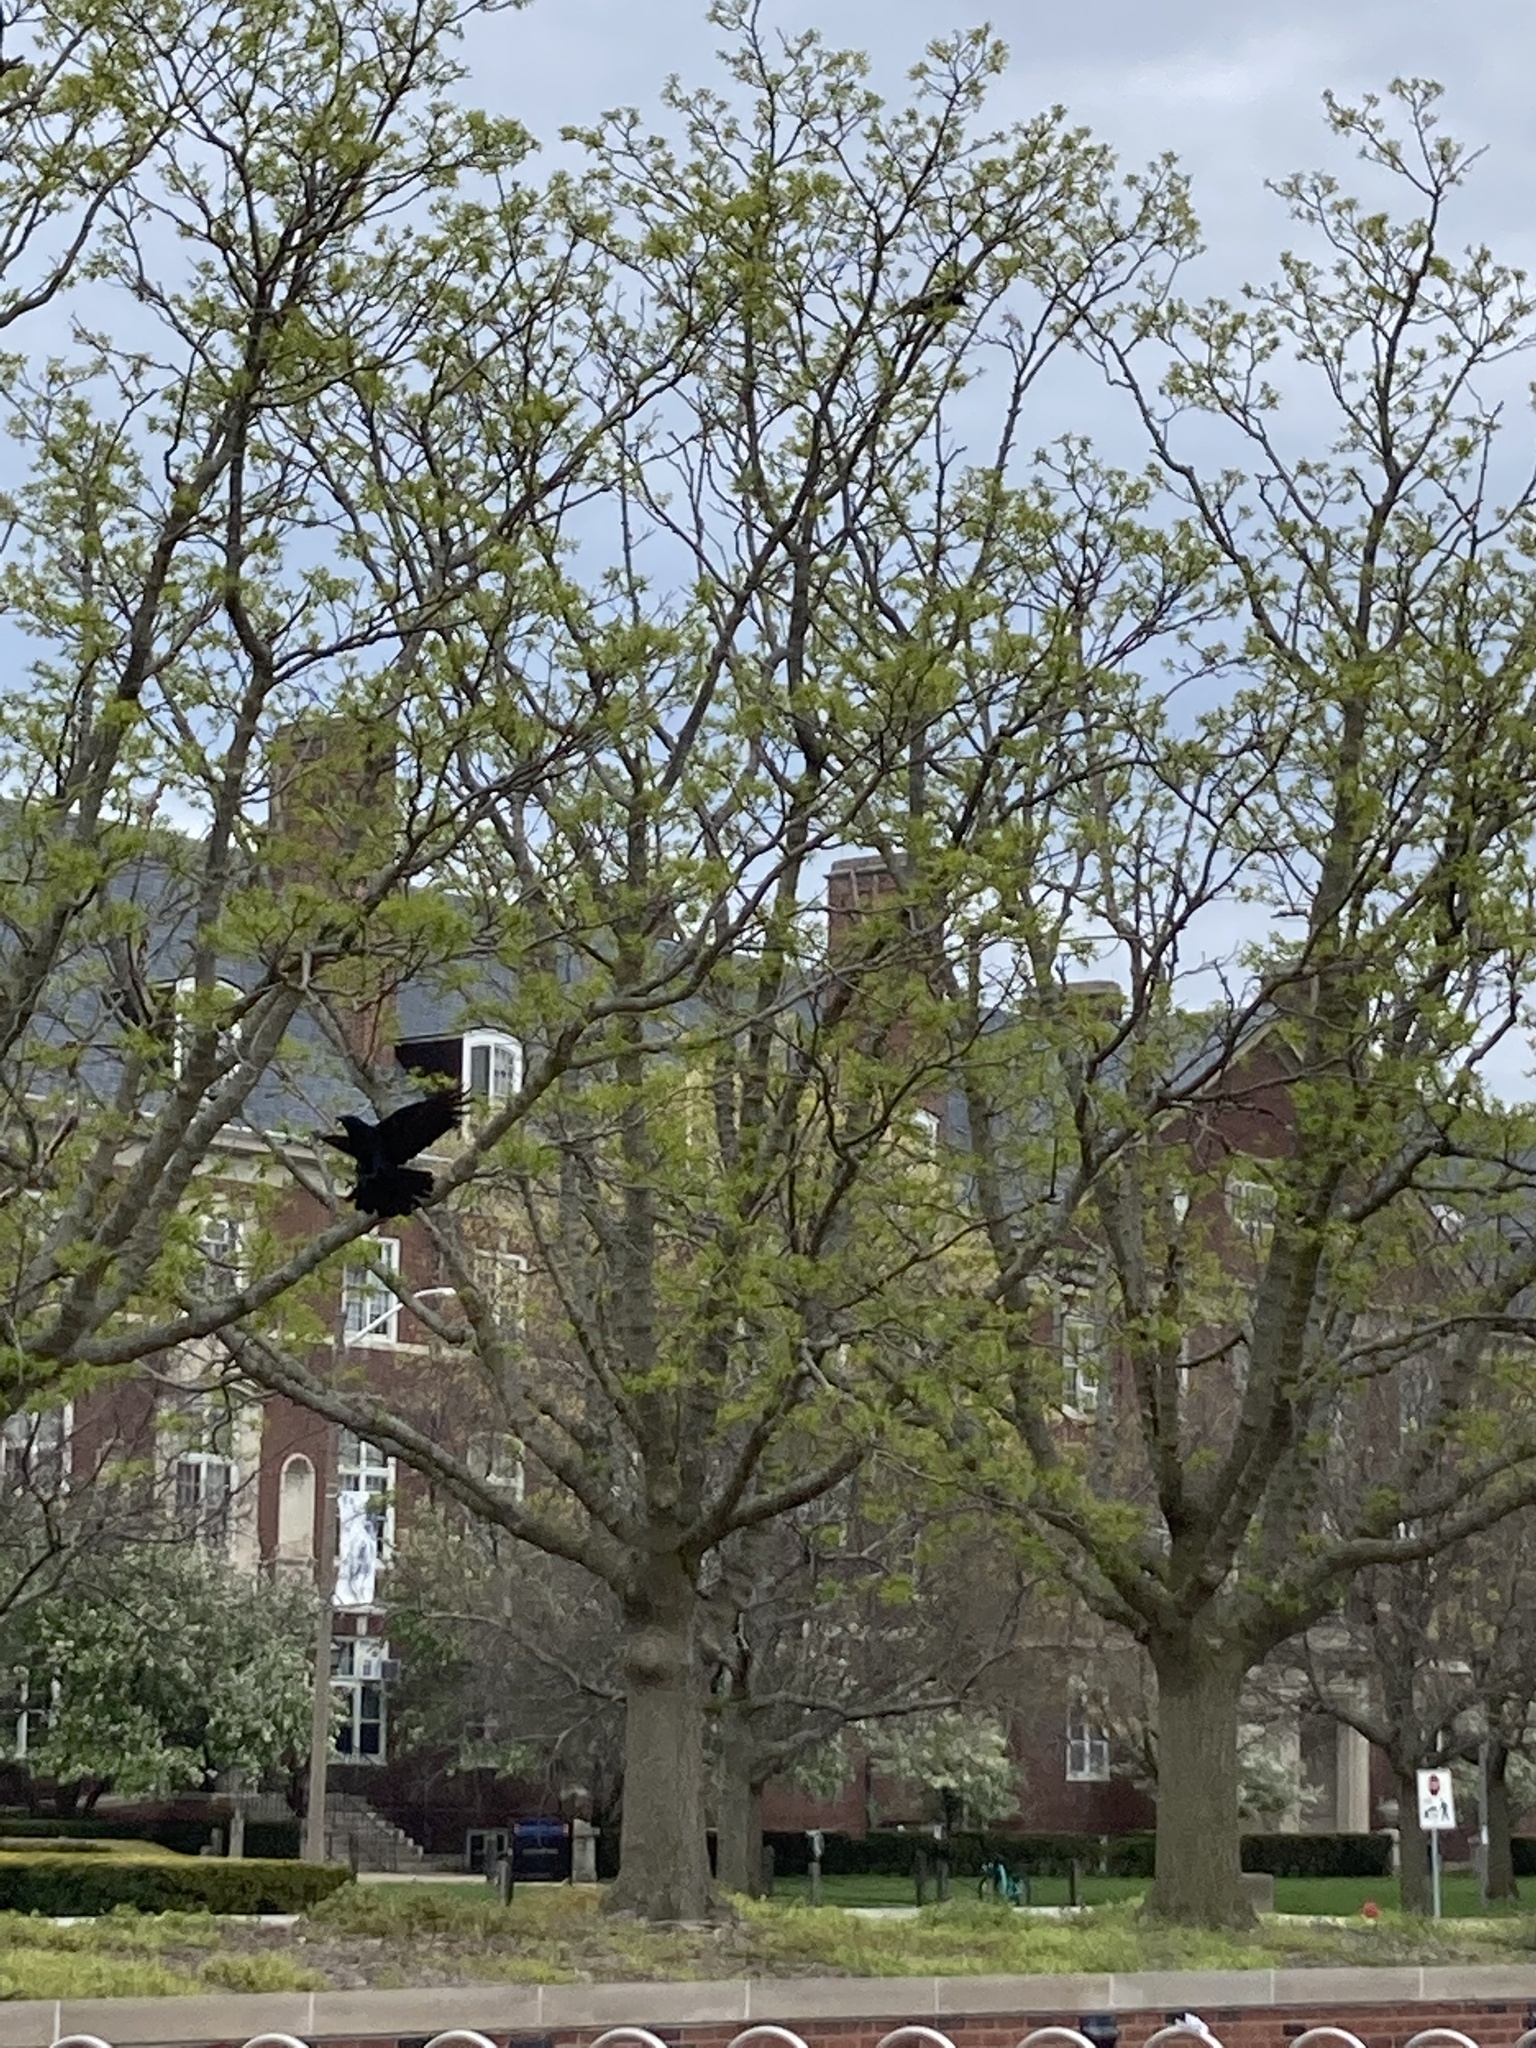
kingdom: Animalia
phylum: Chordata
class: Aves
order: Passeriformes
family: Corvidae
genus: Corvus
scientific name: Corvus brachyrhynchos
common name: American crow
